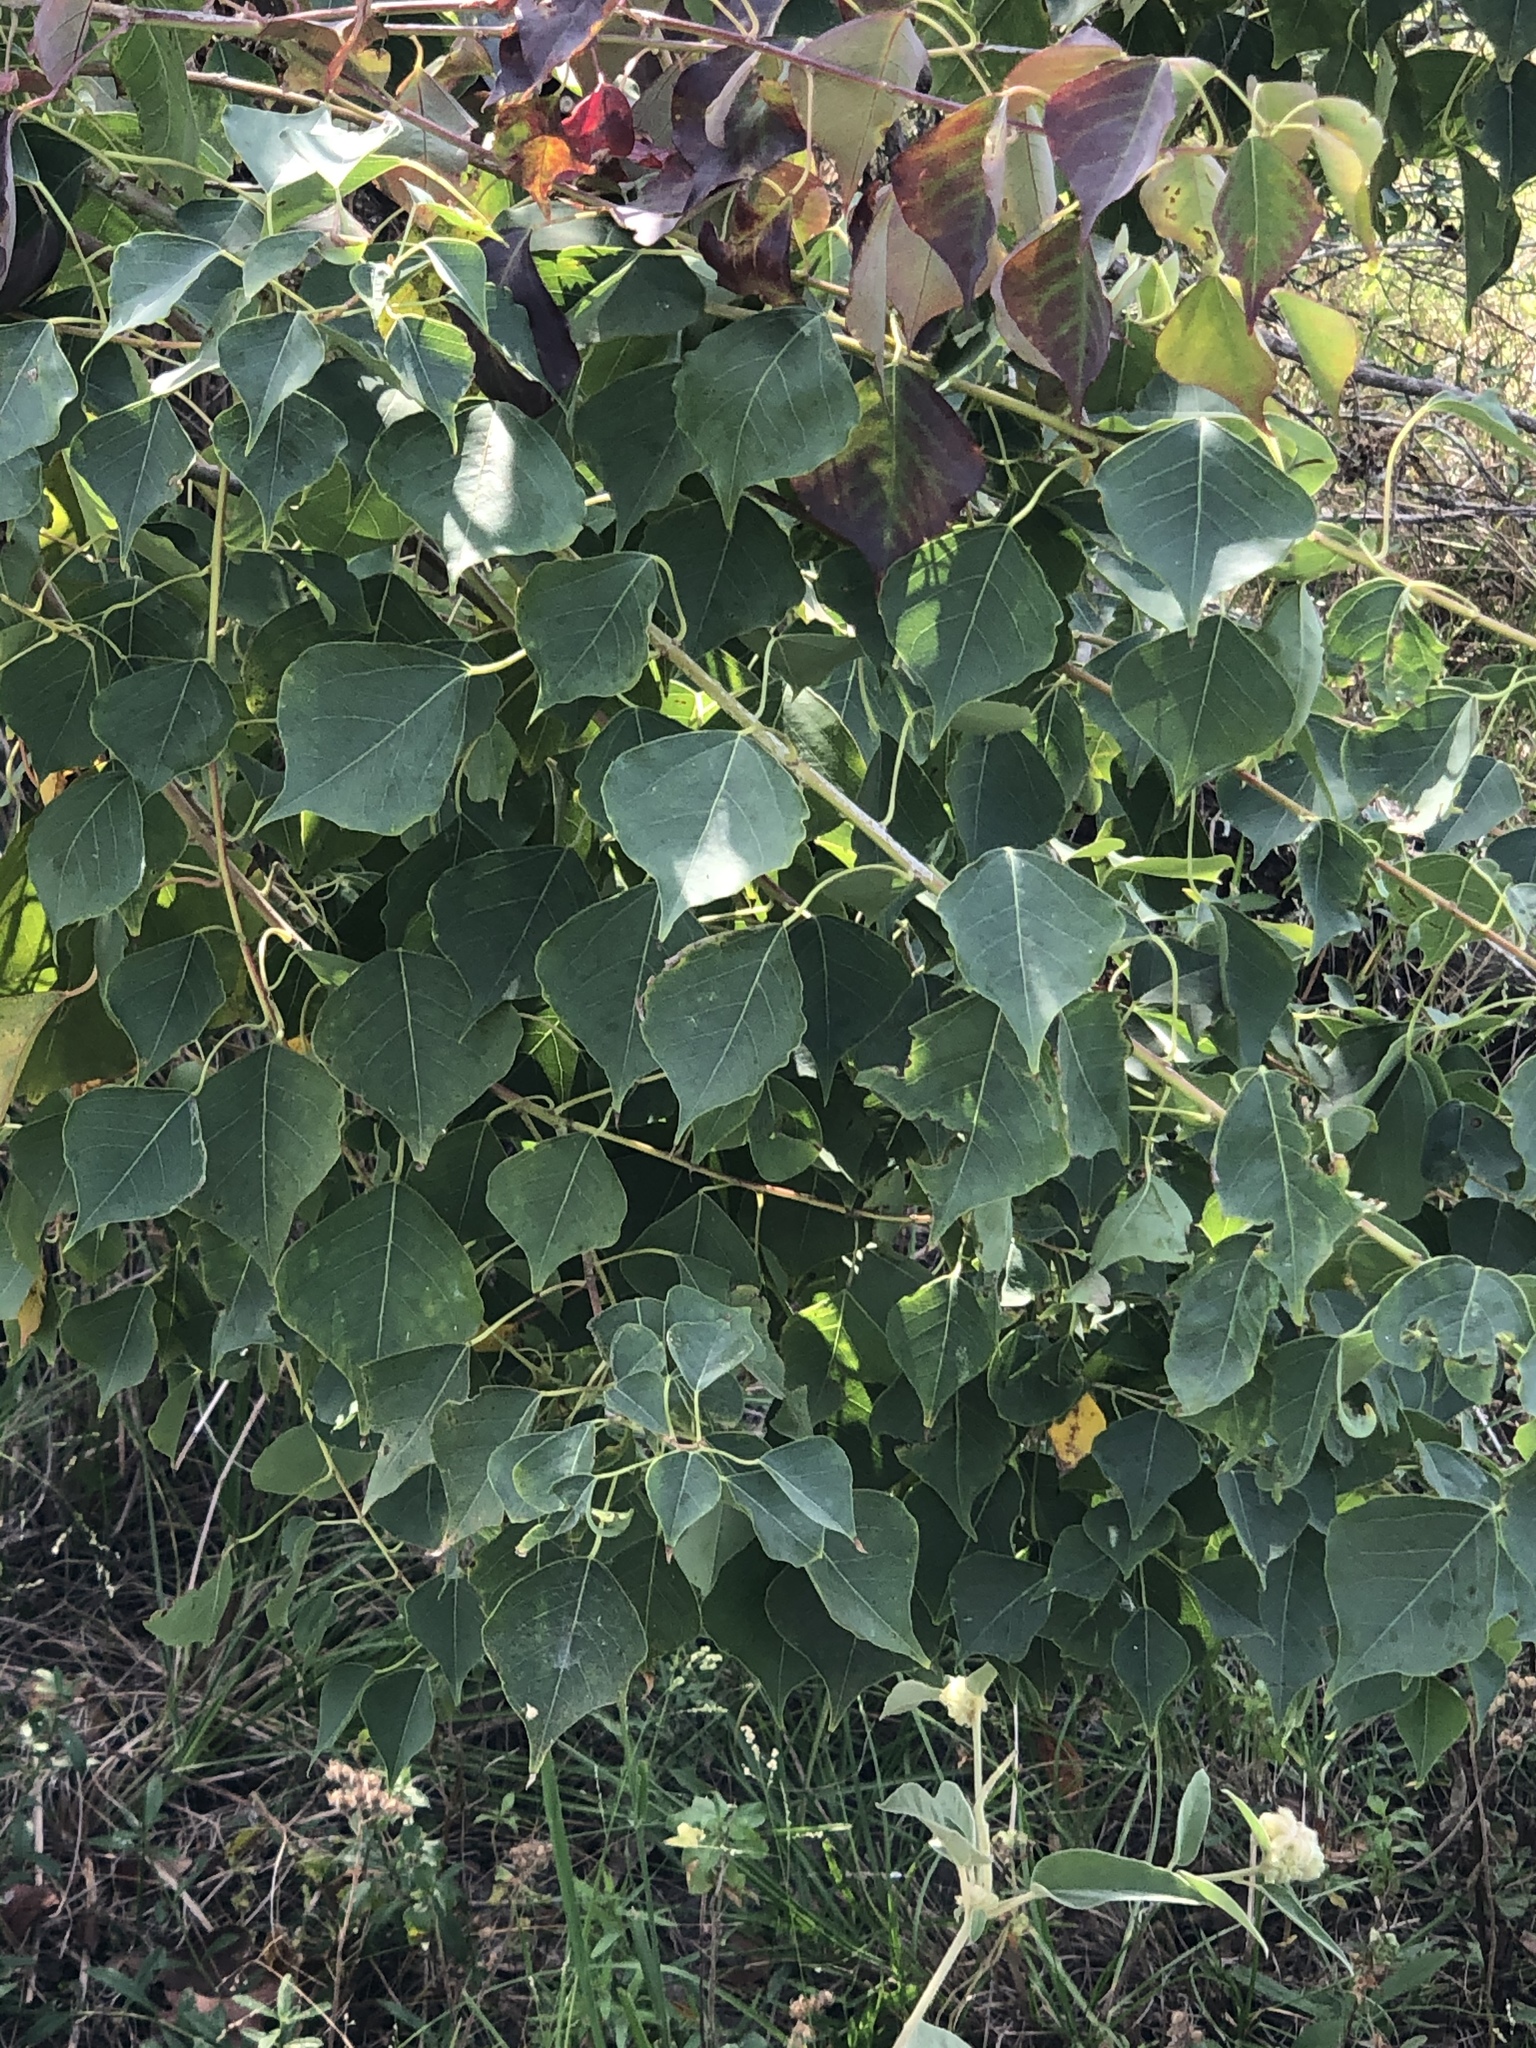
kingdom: Plantae
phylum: Tracheophyta
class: Magnoliopsida
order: Malpighiales
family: Euphorbiaceae
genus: Triadica
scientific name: Triadica sebifera
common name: Chinese tallow
